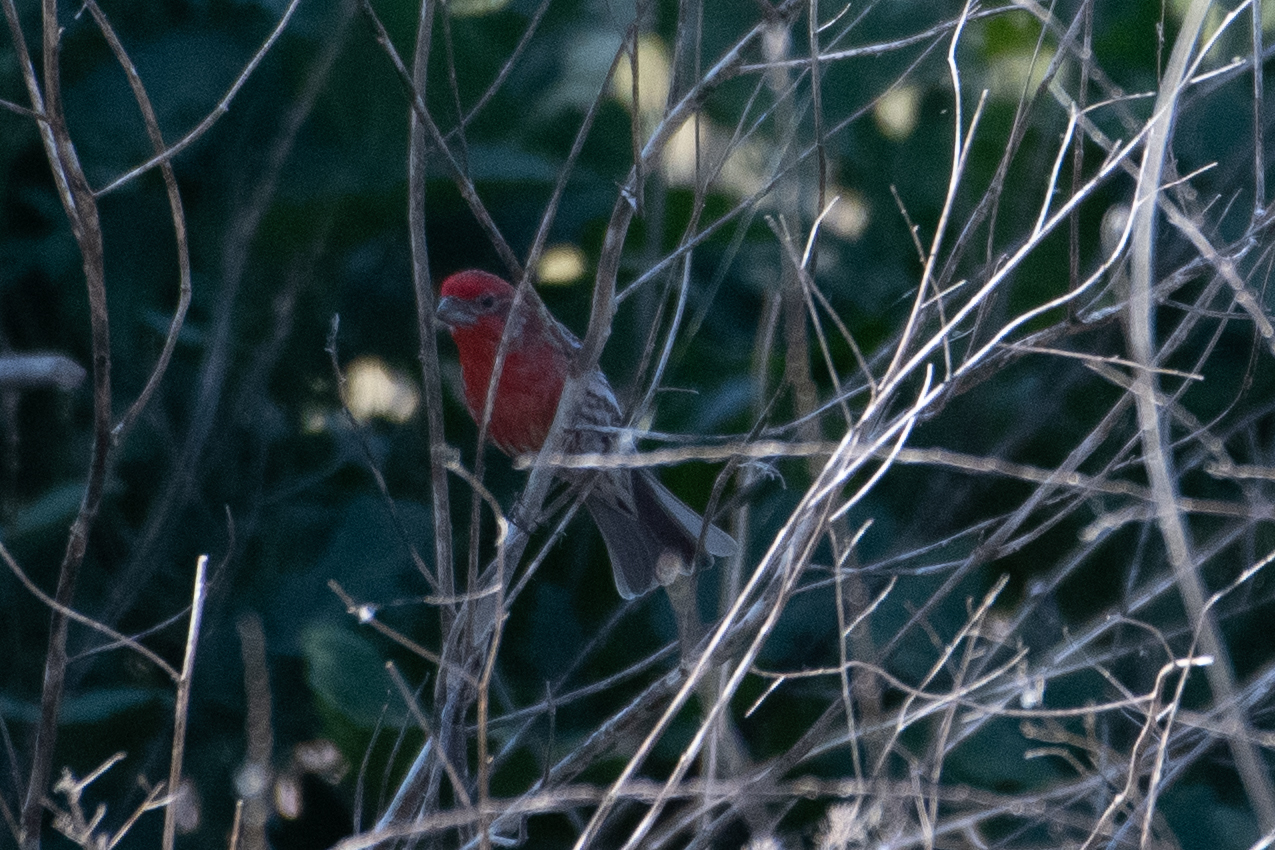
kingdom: Animalia
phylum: Chordata
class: Aves
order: Passeriformes
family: Fringillidae
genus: Haemorhous
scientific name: Haemorhous mexicanus
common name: House finch
